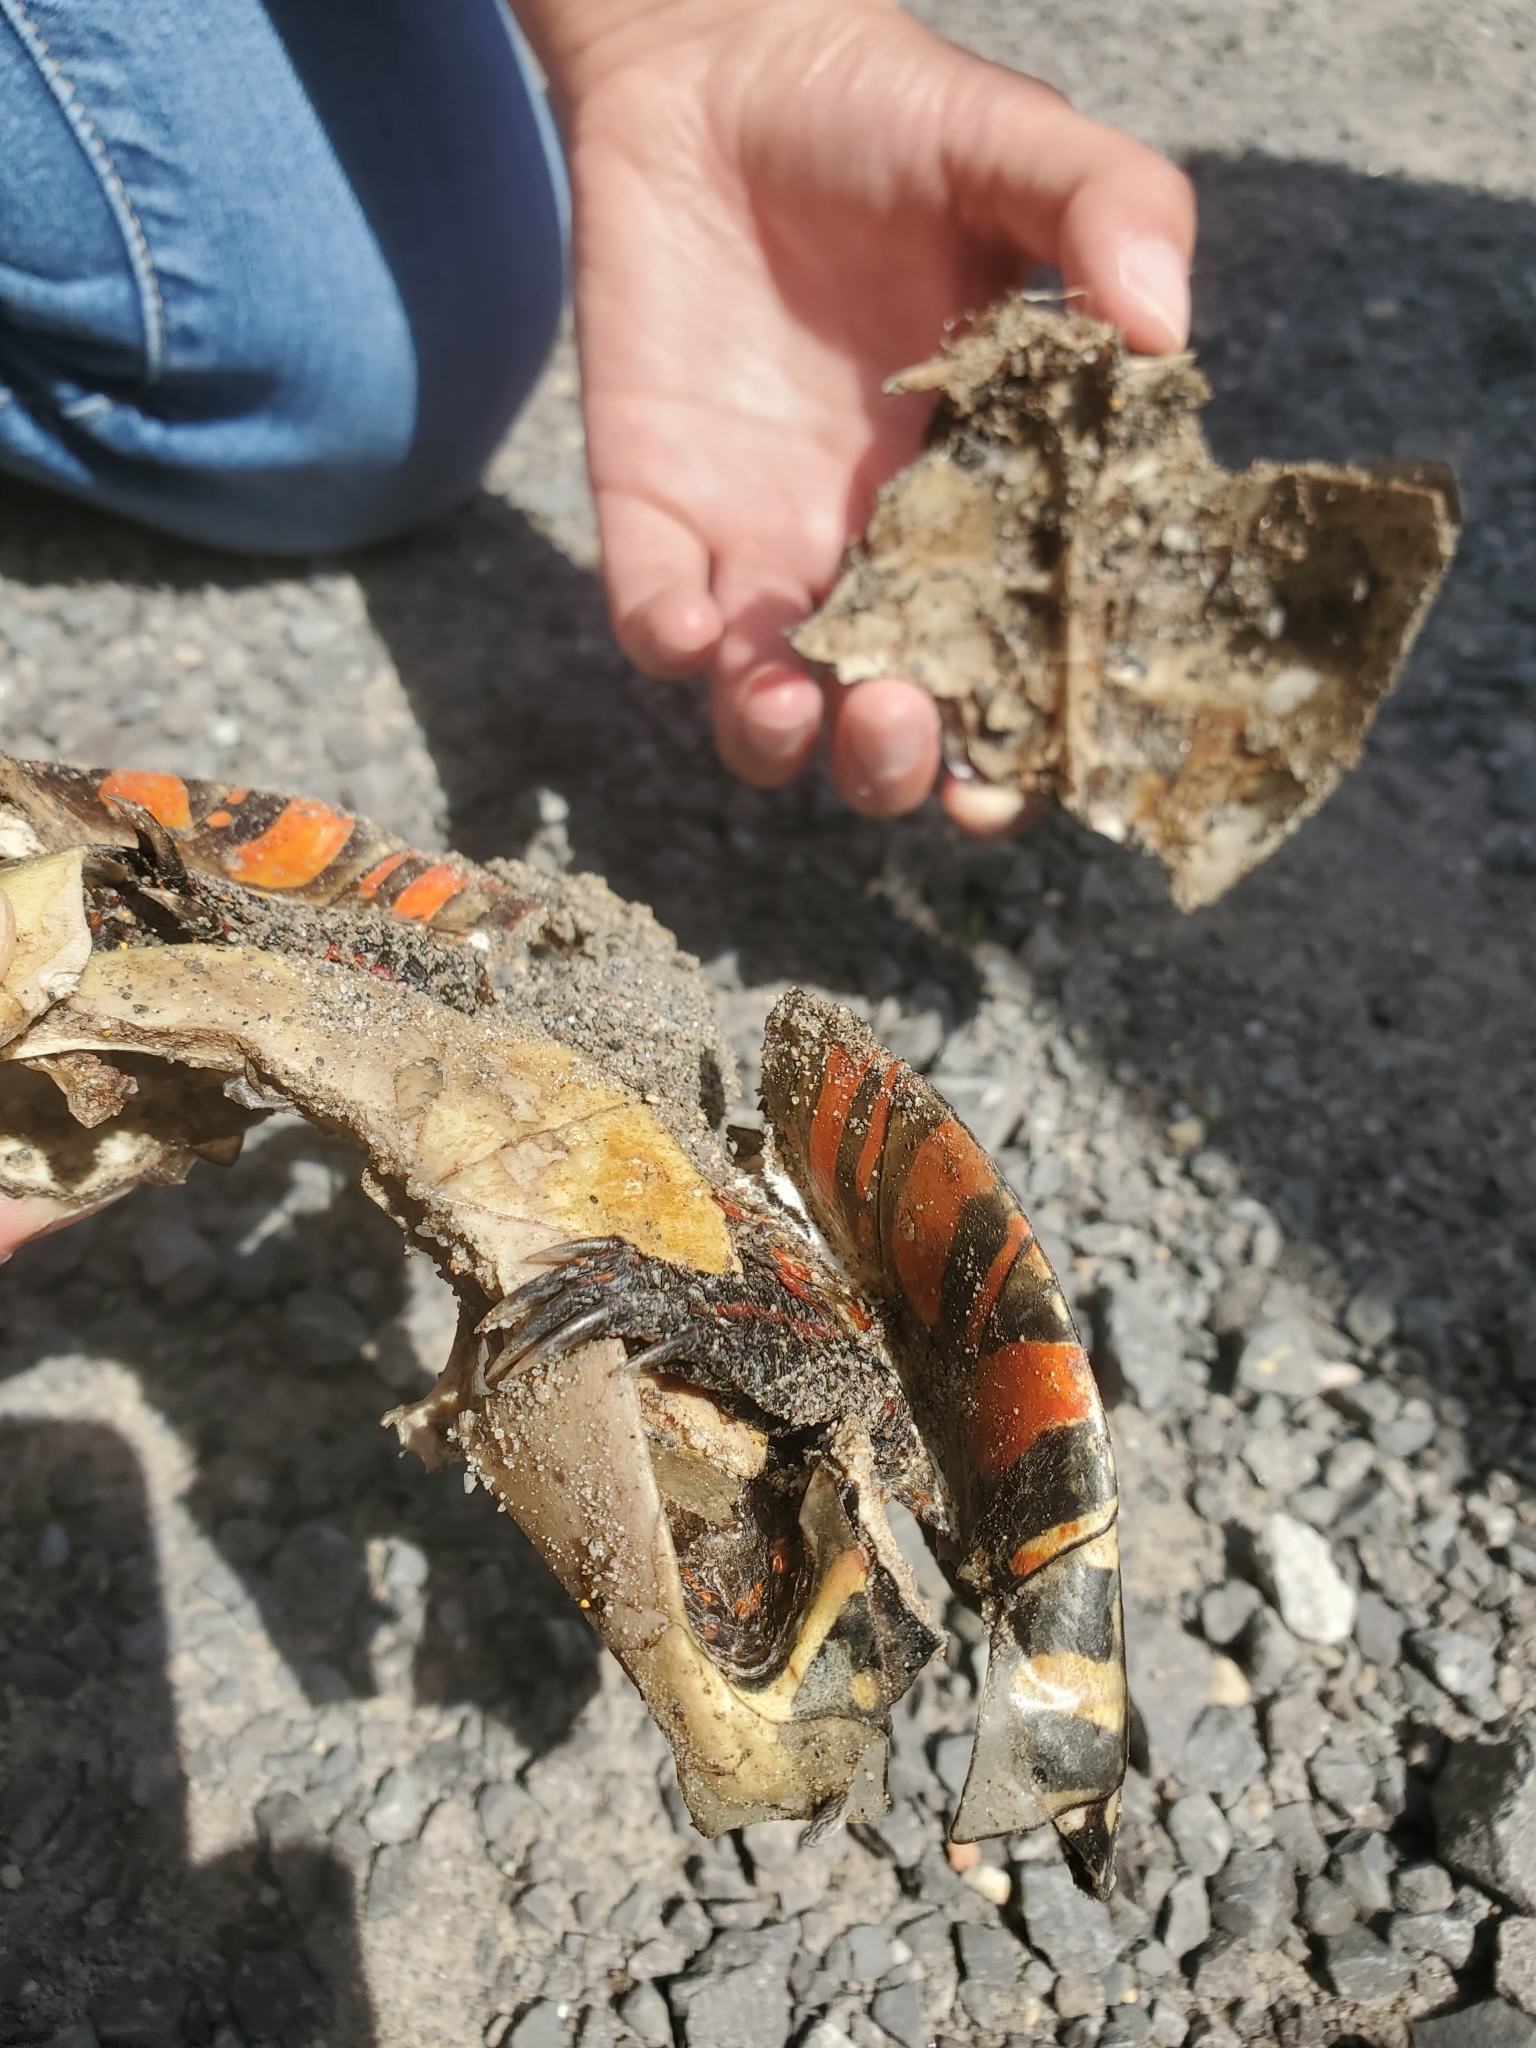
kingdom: Animalia
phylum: Chordata
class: Testudines
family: Emydidae
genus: Chrysemys
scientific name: Chrysemys picta
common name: Painted turtle
